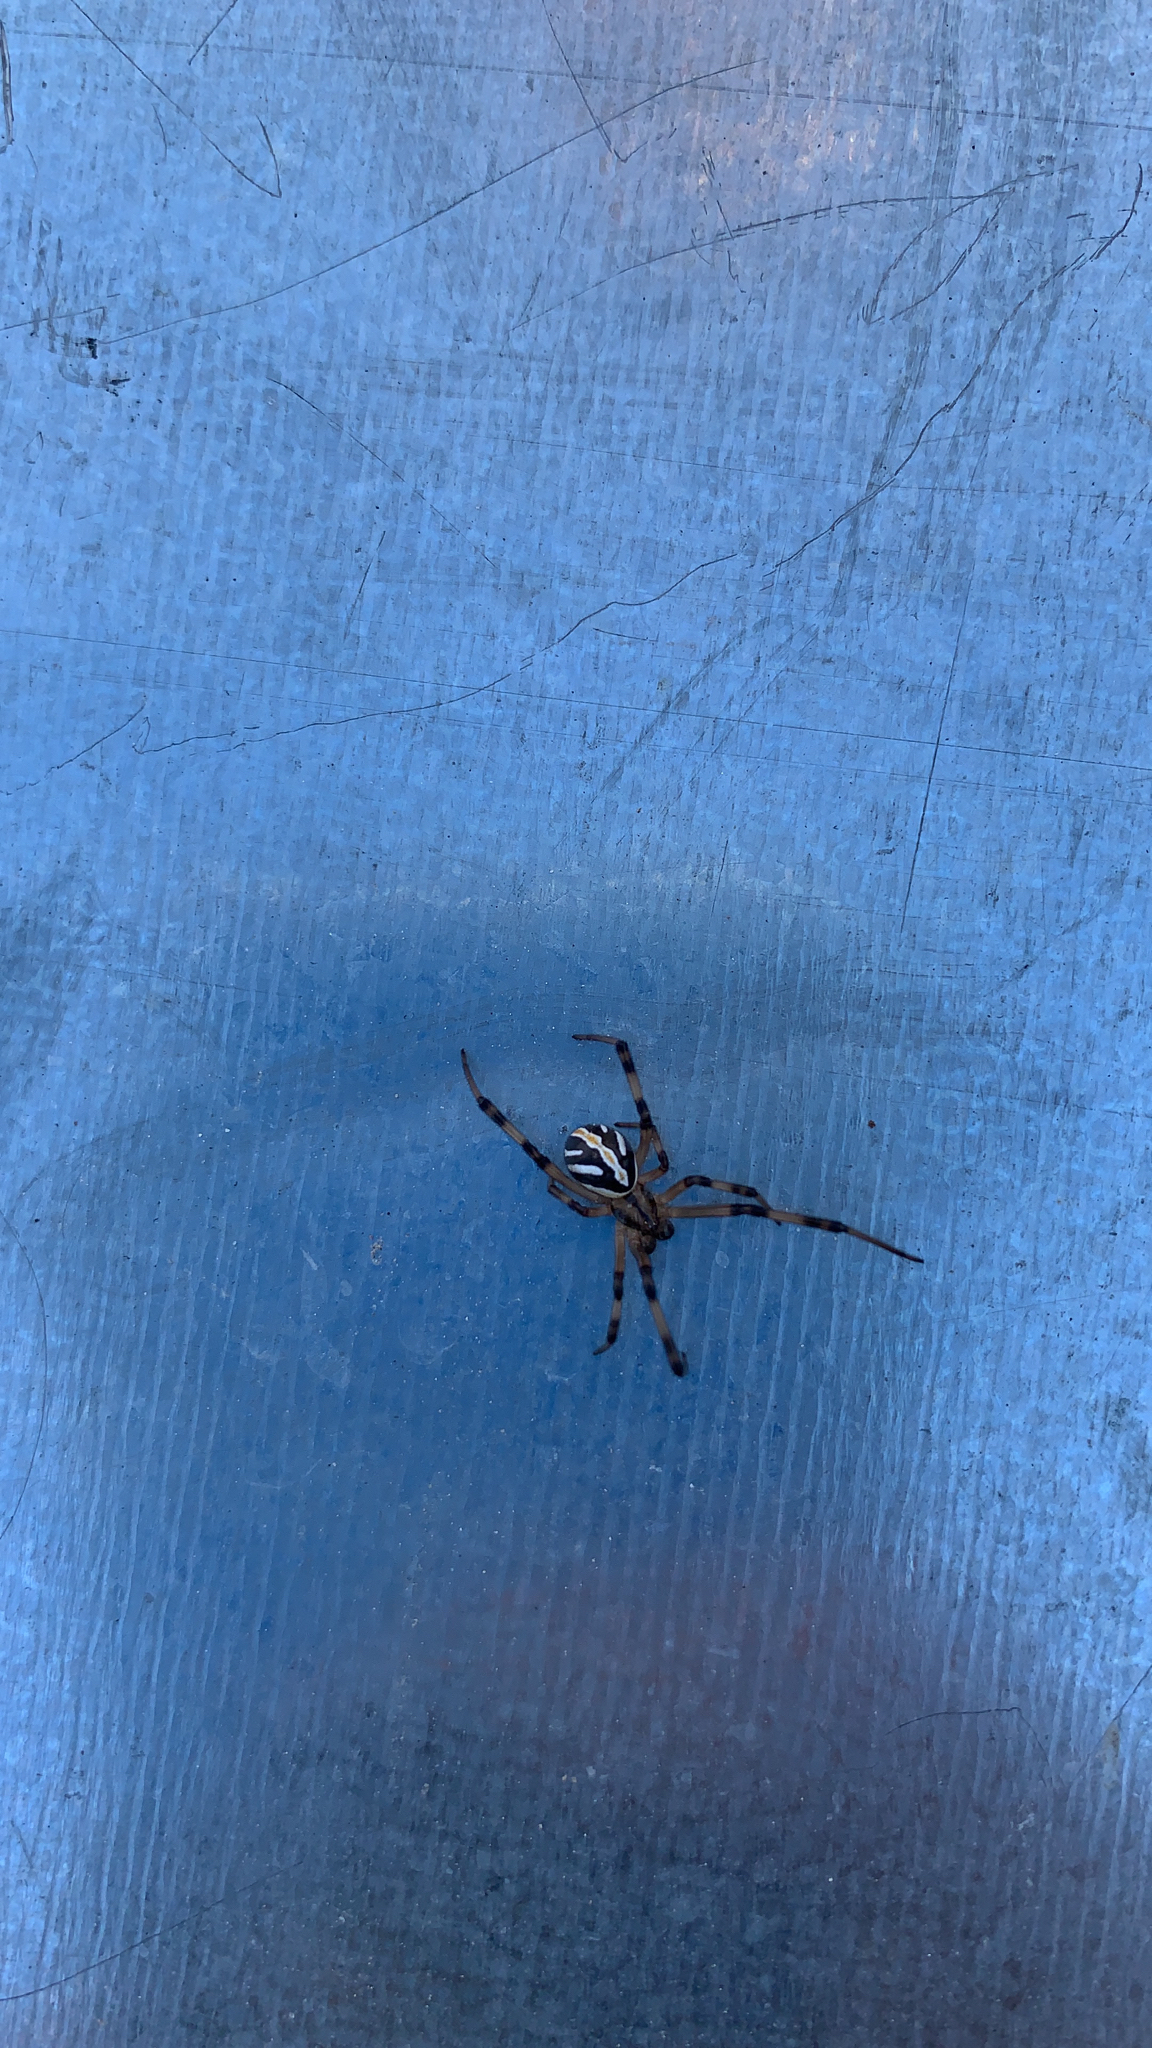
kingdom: Animalia
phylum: Arthropoda
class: Arachnida
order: Araneae
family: Theridiidae
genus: Latrodectus
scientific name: Latrodectus hesperus
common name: Western black widow
